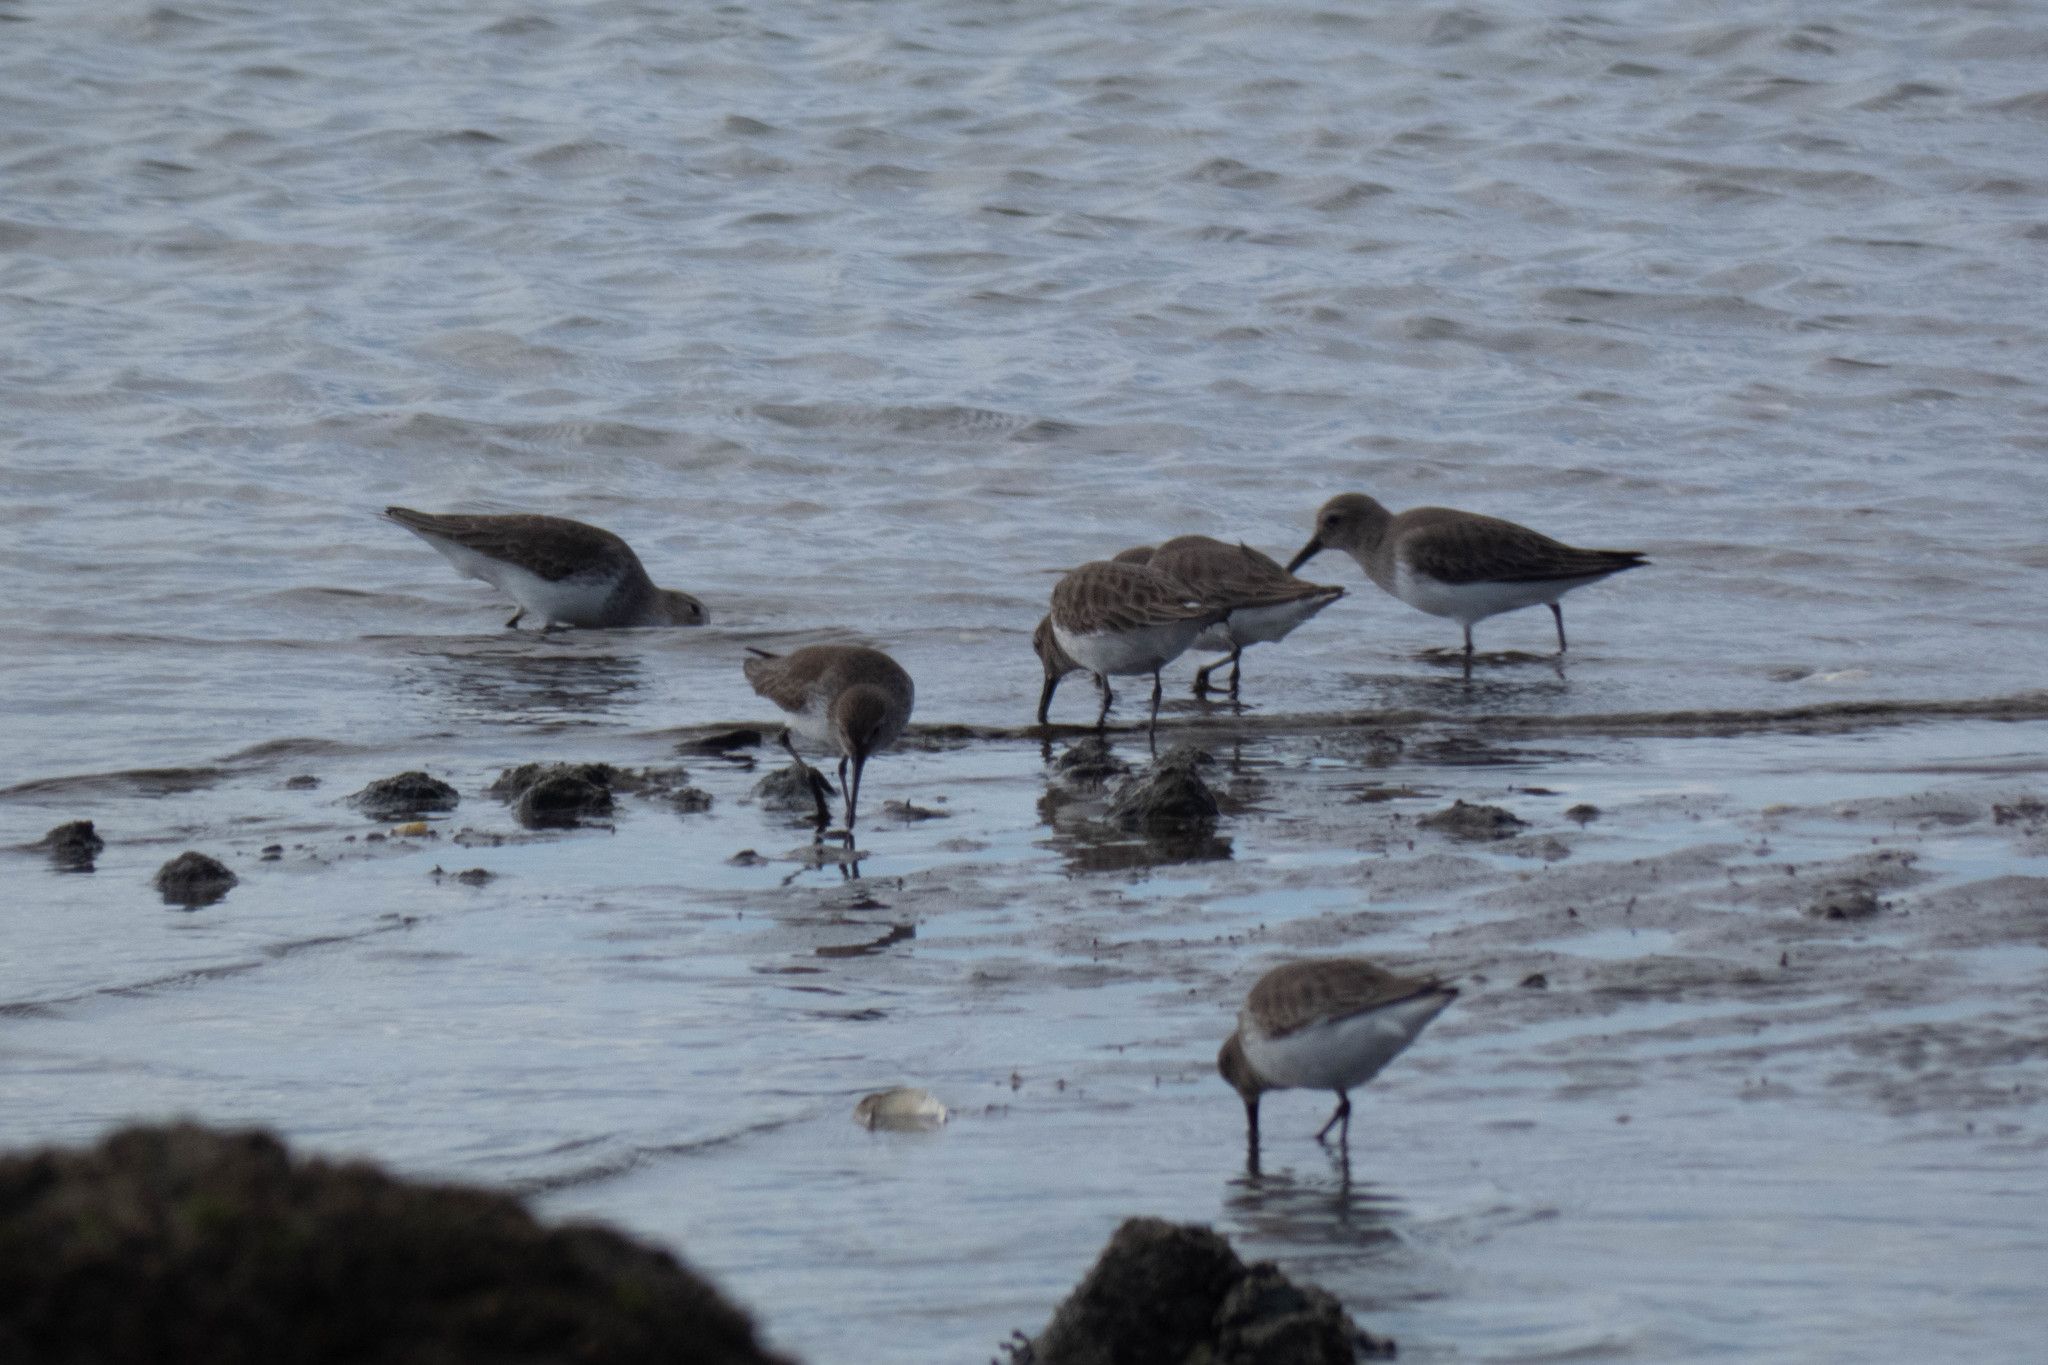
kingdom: Animalia
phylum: Chordata
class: Aves
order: Charadriiformes
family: Scolopacidae
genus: Calidris
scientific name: Calidris alpina
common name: Dunlin
